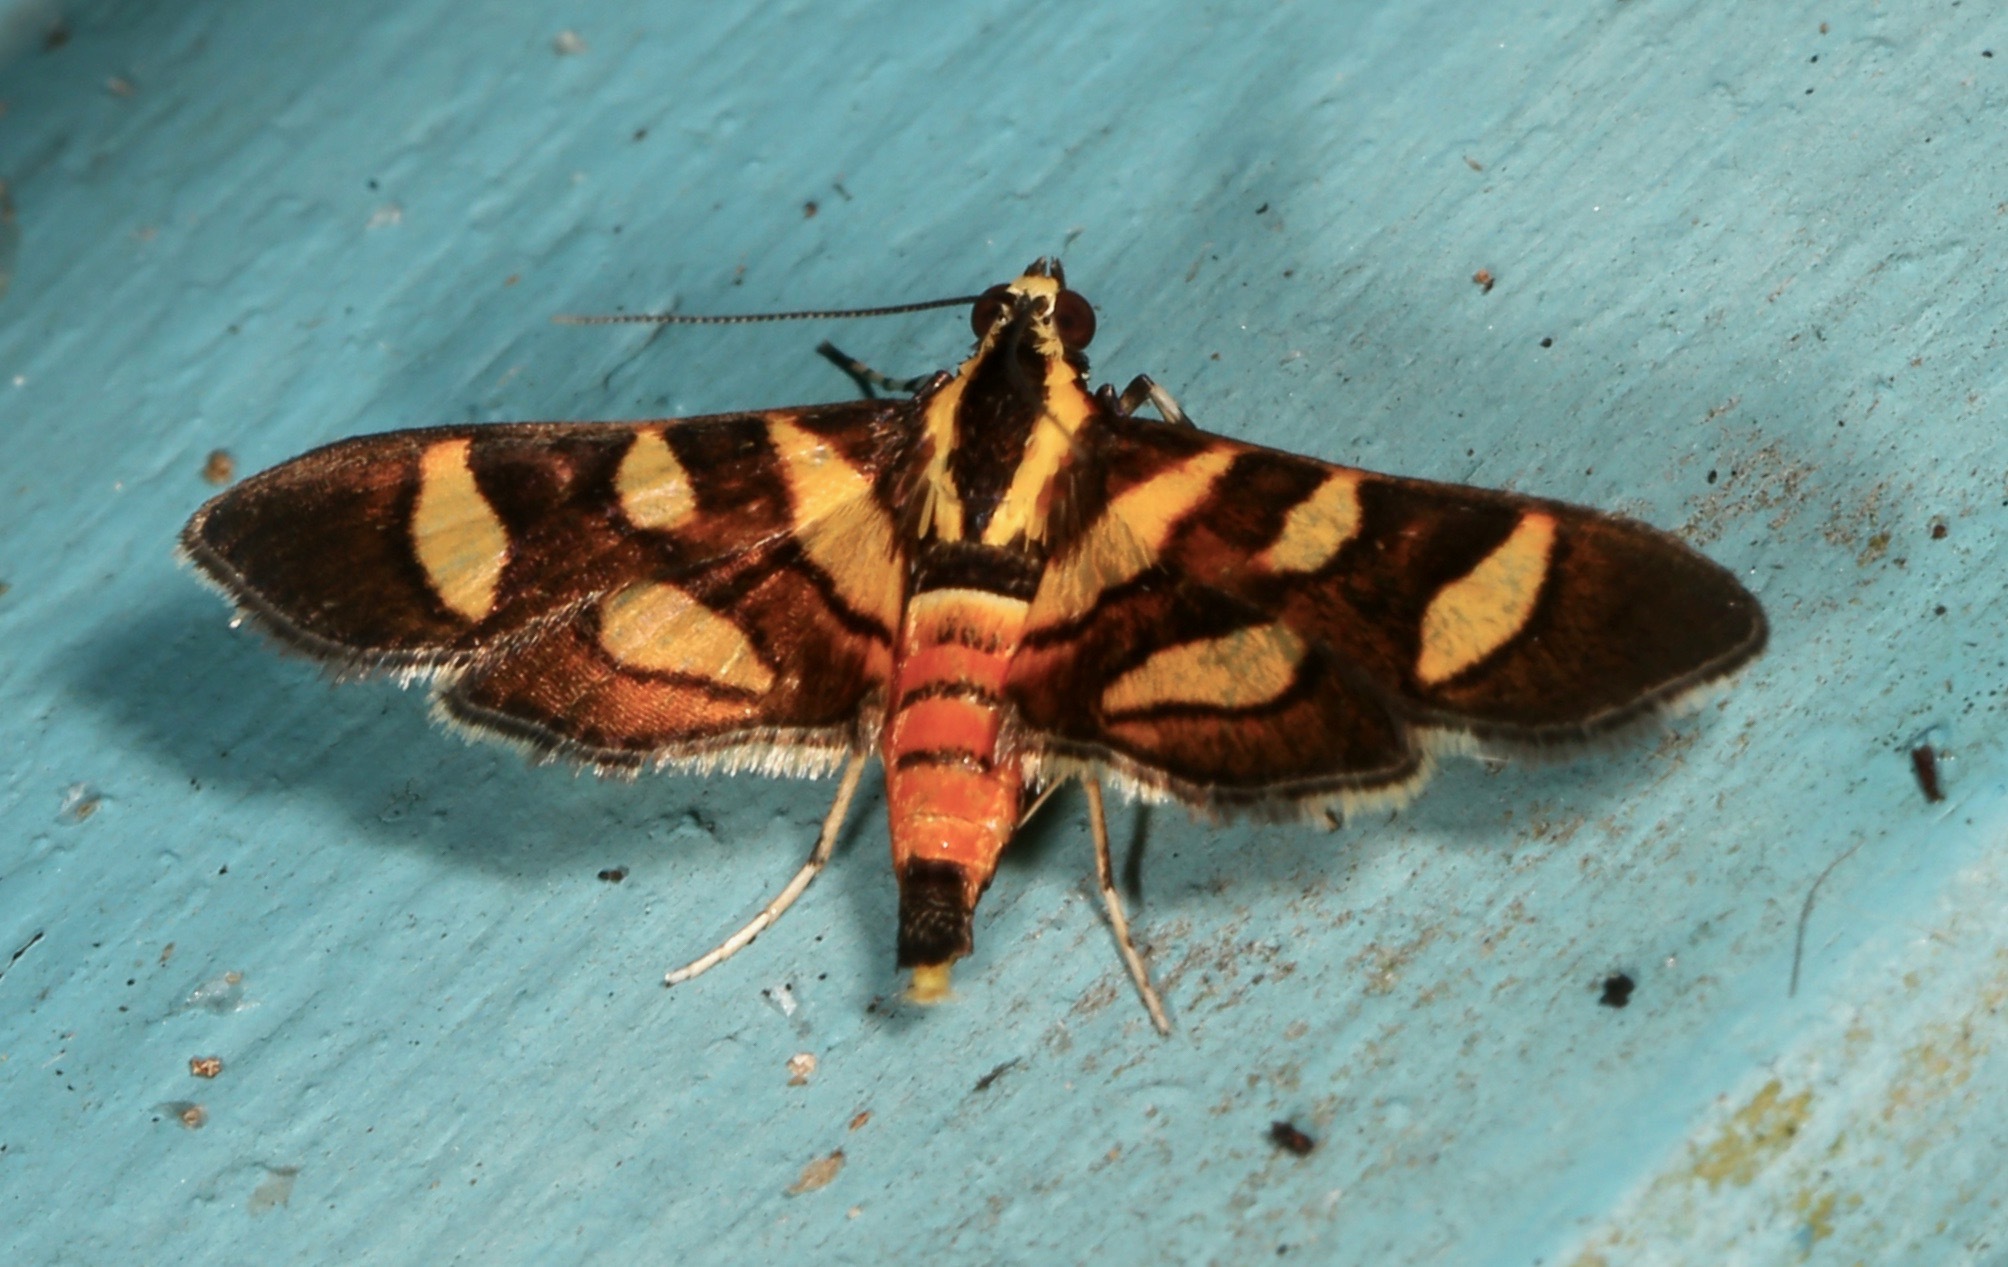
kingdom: Animalia
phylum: Arthropoda
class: Insecta
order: Lepidoptera
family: Crambidae
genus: Syngamia
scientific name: Syngamia florella
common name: Orange-spotted flower moth
